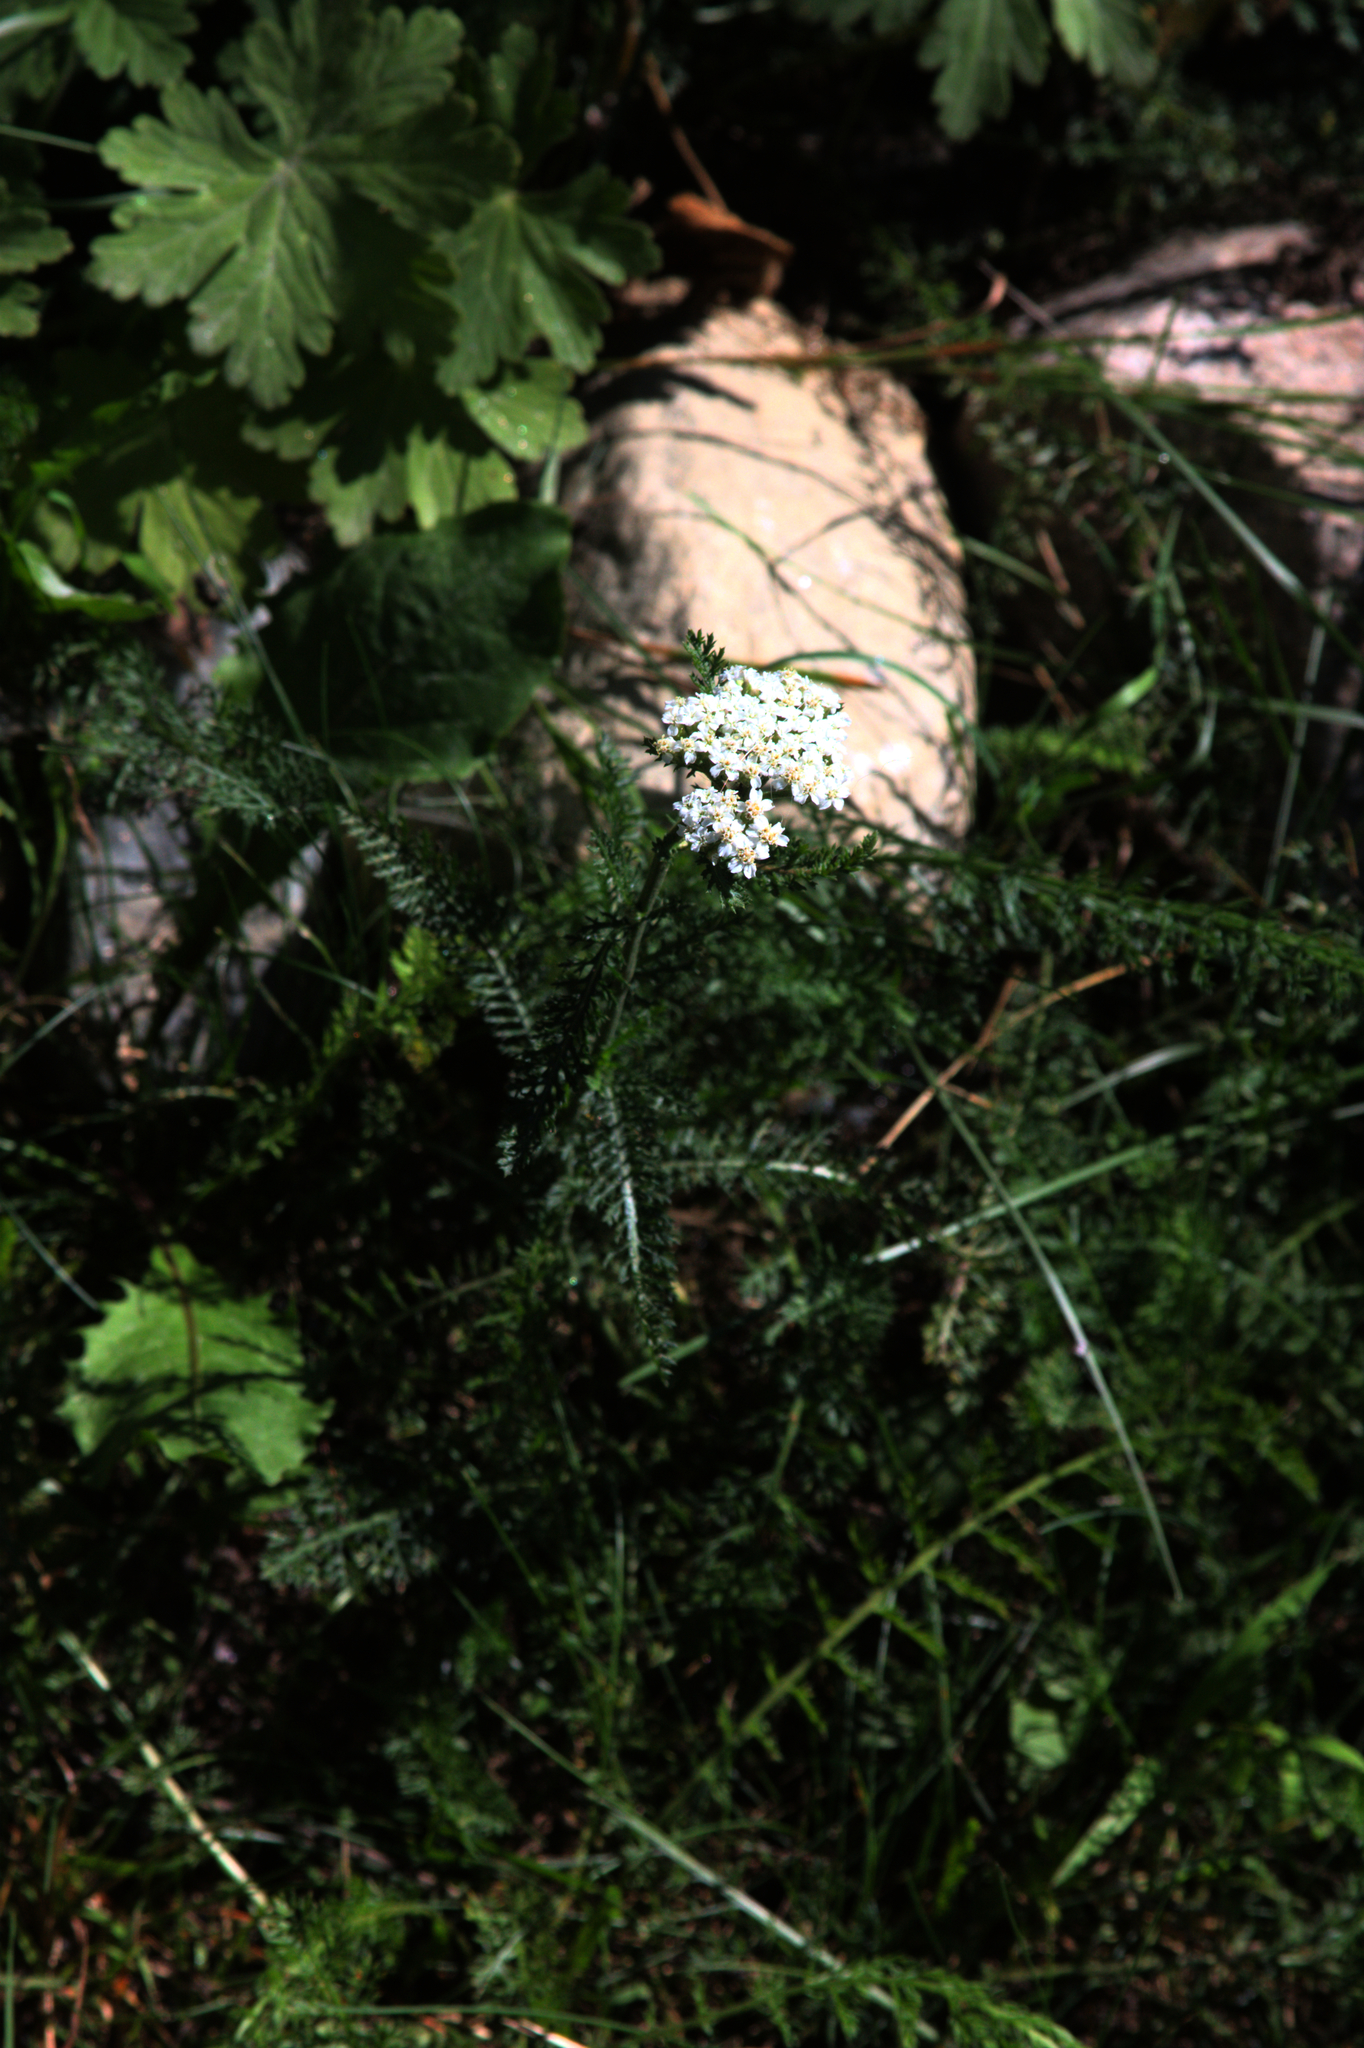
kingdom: Plantae
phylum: Tracheophyta
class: Magnoliopsida
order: Asterales
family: Asteraceae
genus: Achillea
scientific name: Achillea millefolium
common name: Yarrow
